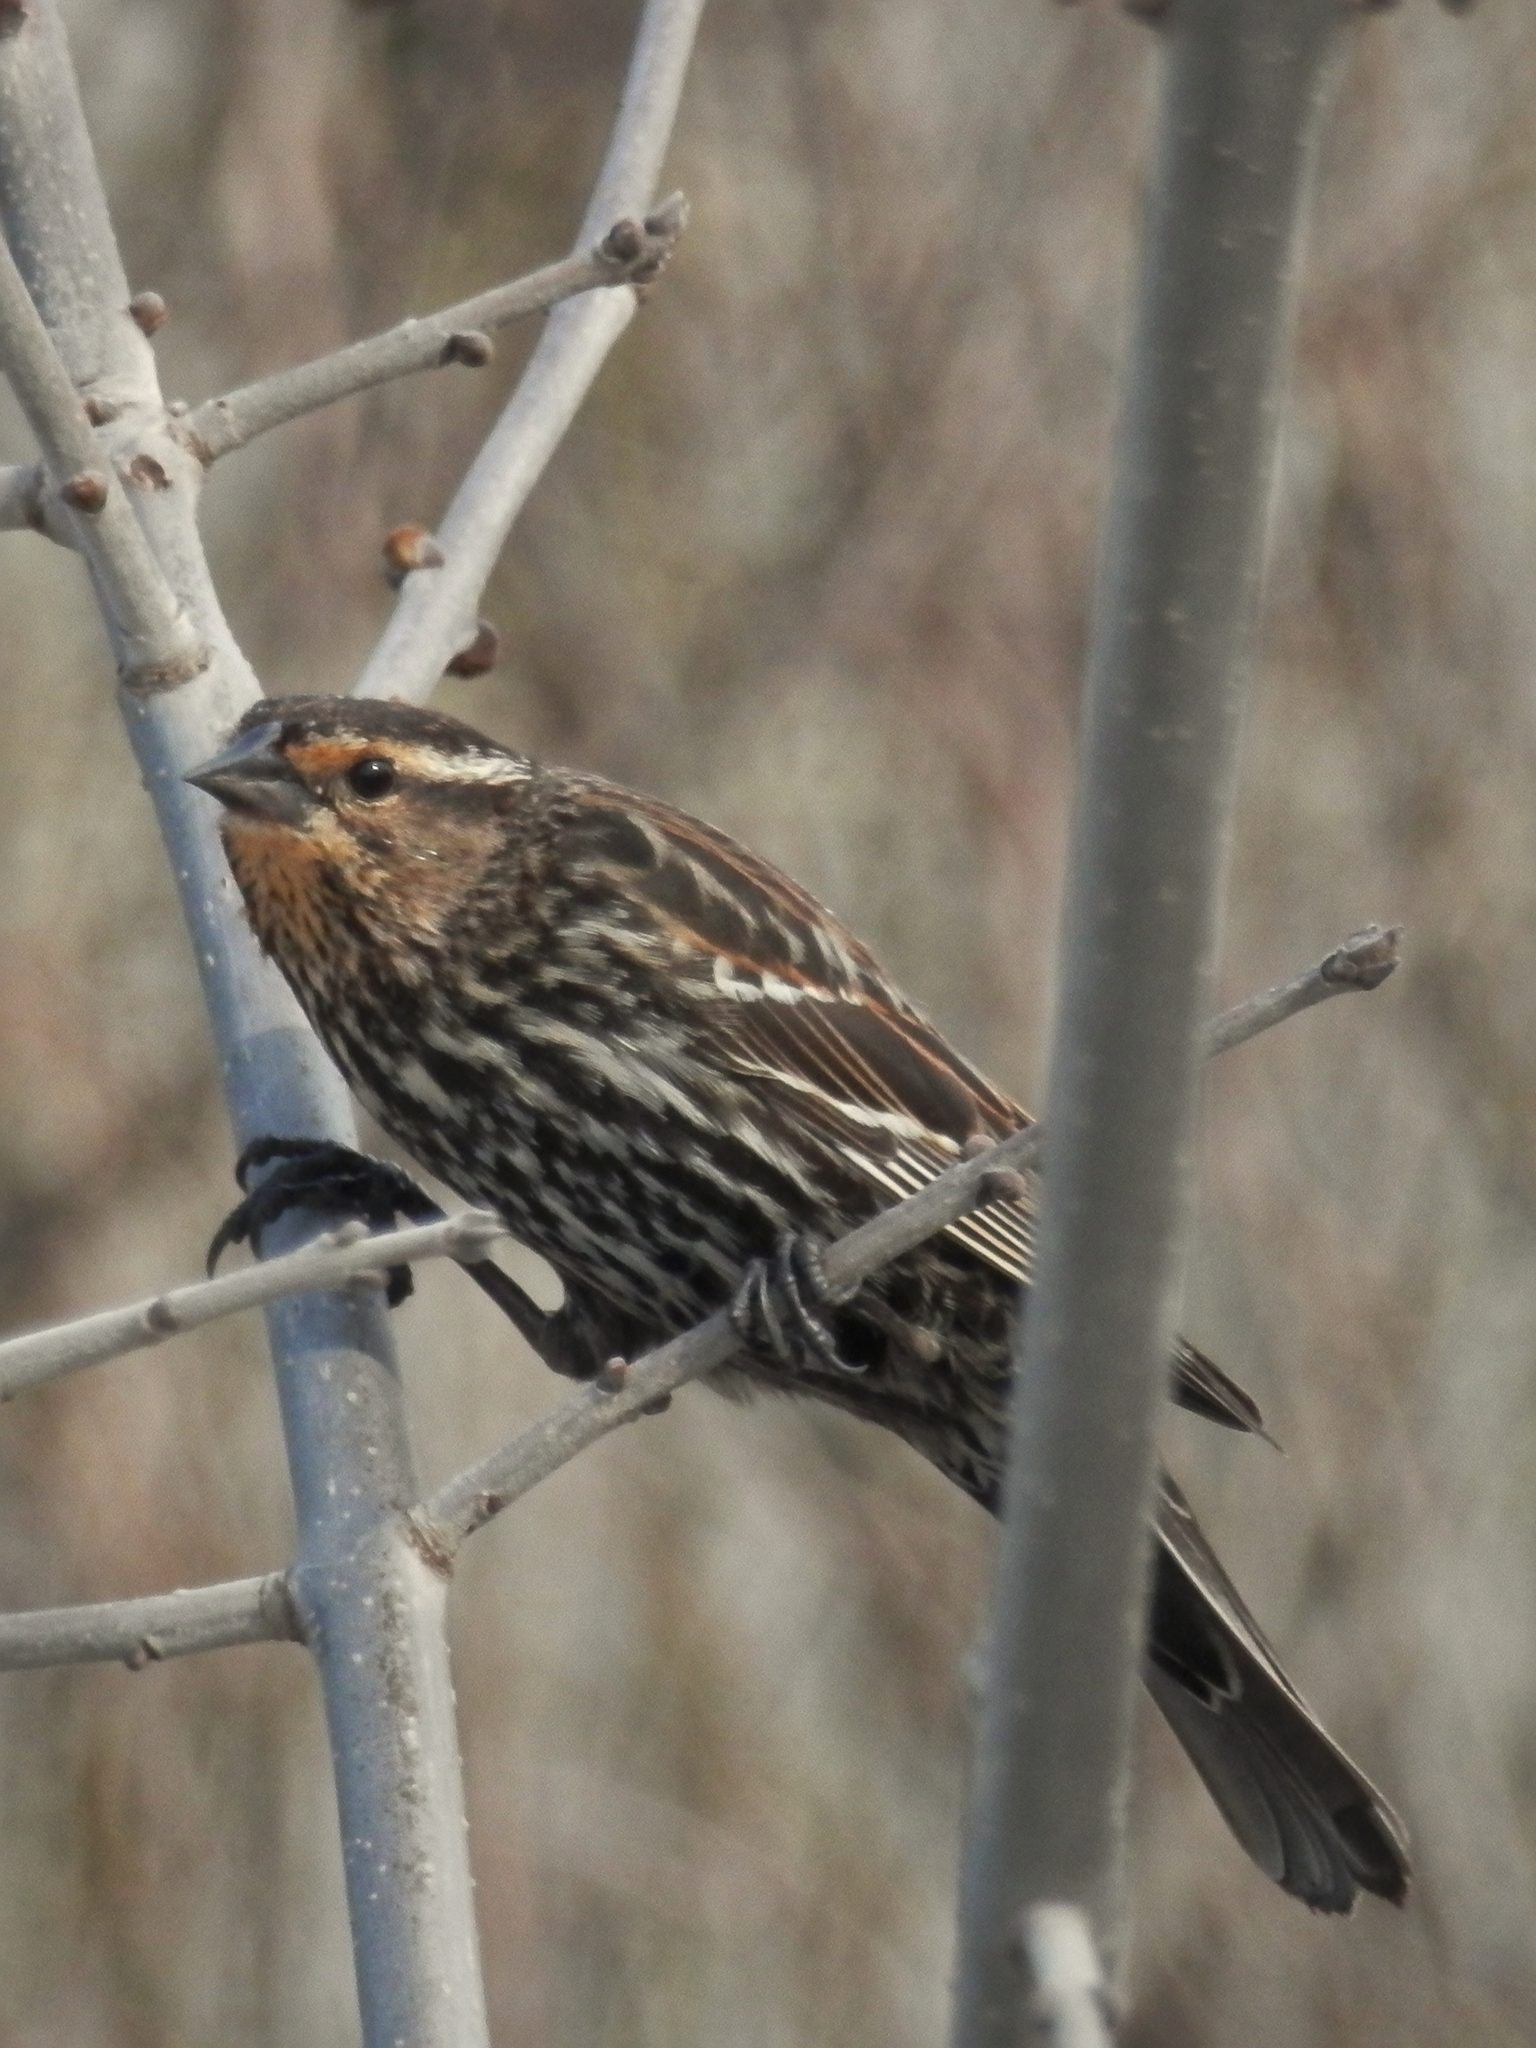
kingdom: Animalia
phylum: Chordata
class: Aves
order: Passeriformes
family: Icteridae
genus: Agelaius
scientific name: Agelaius phoeniceus
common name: Red-winged blackbird
